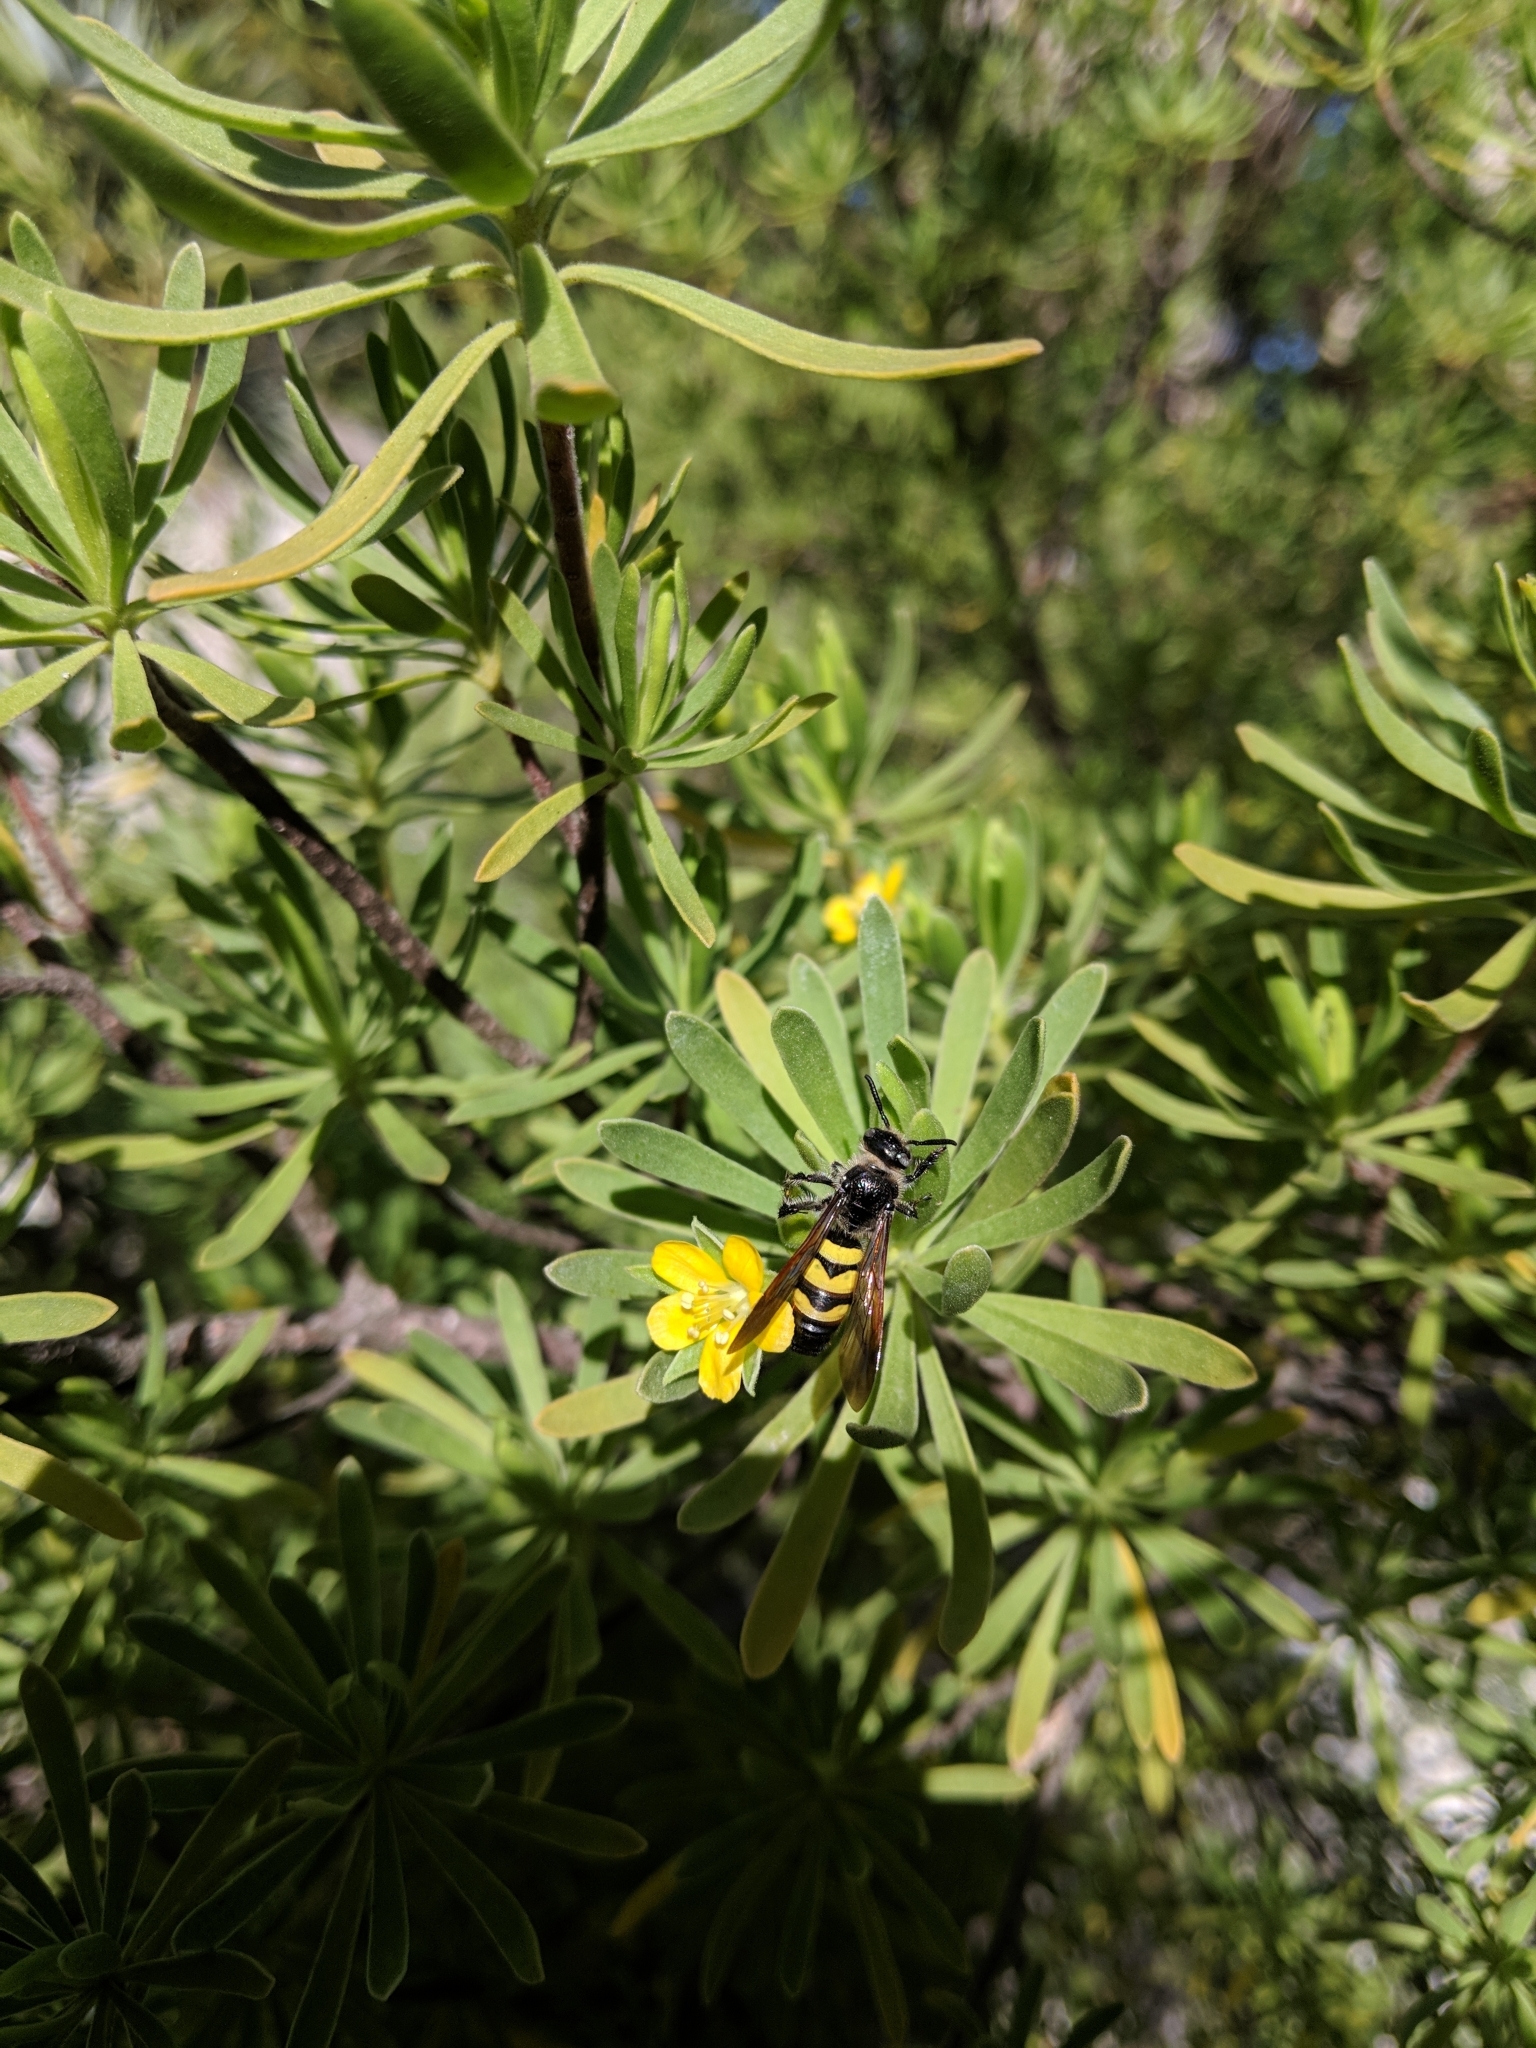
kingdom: Animalia
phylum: Arthropoda
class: Insecta
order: Hymenoptera
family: Scoliidae
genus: Dielis
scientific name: Dielis
